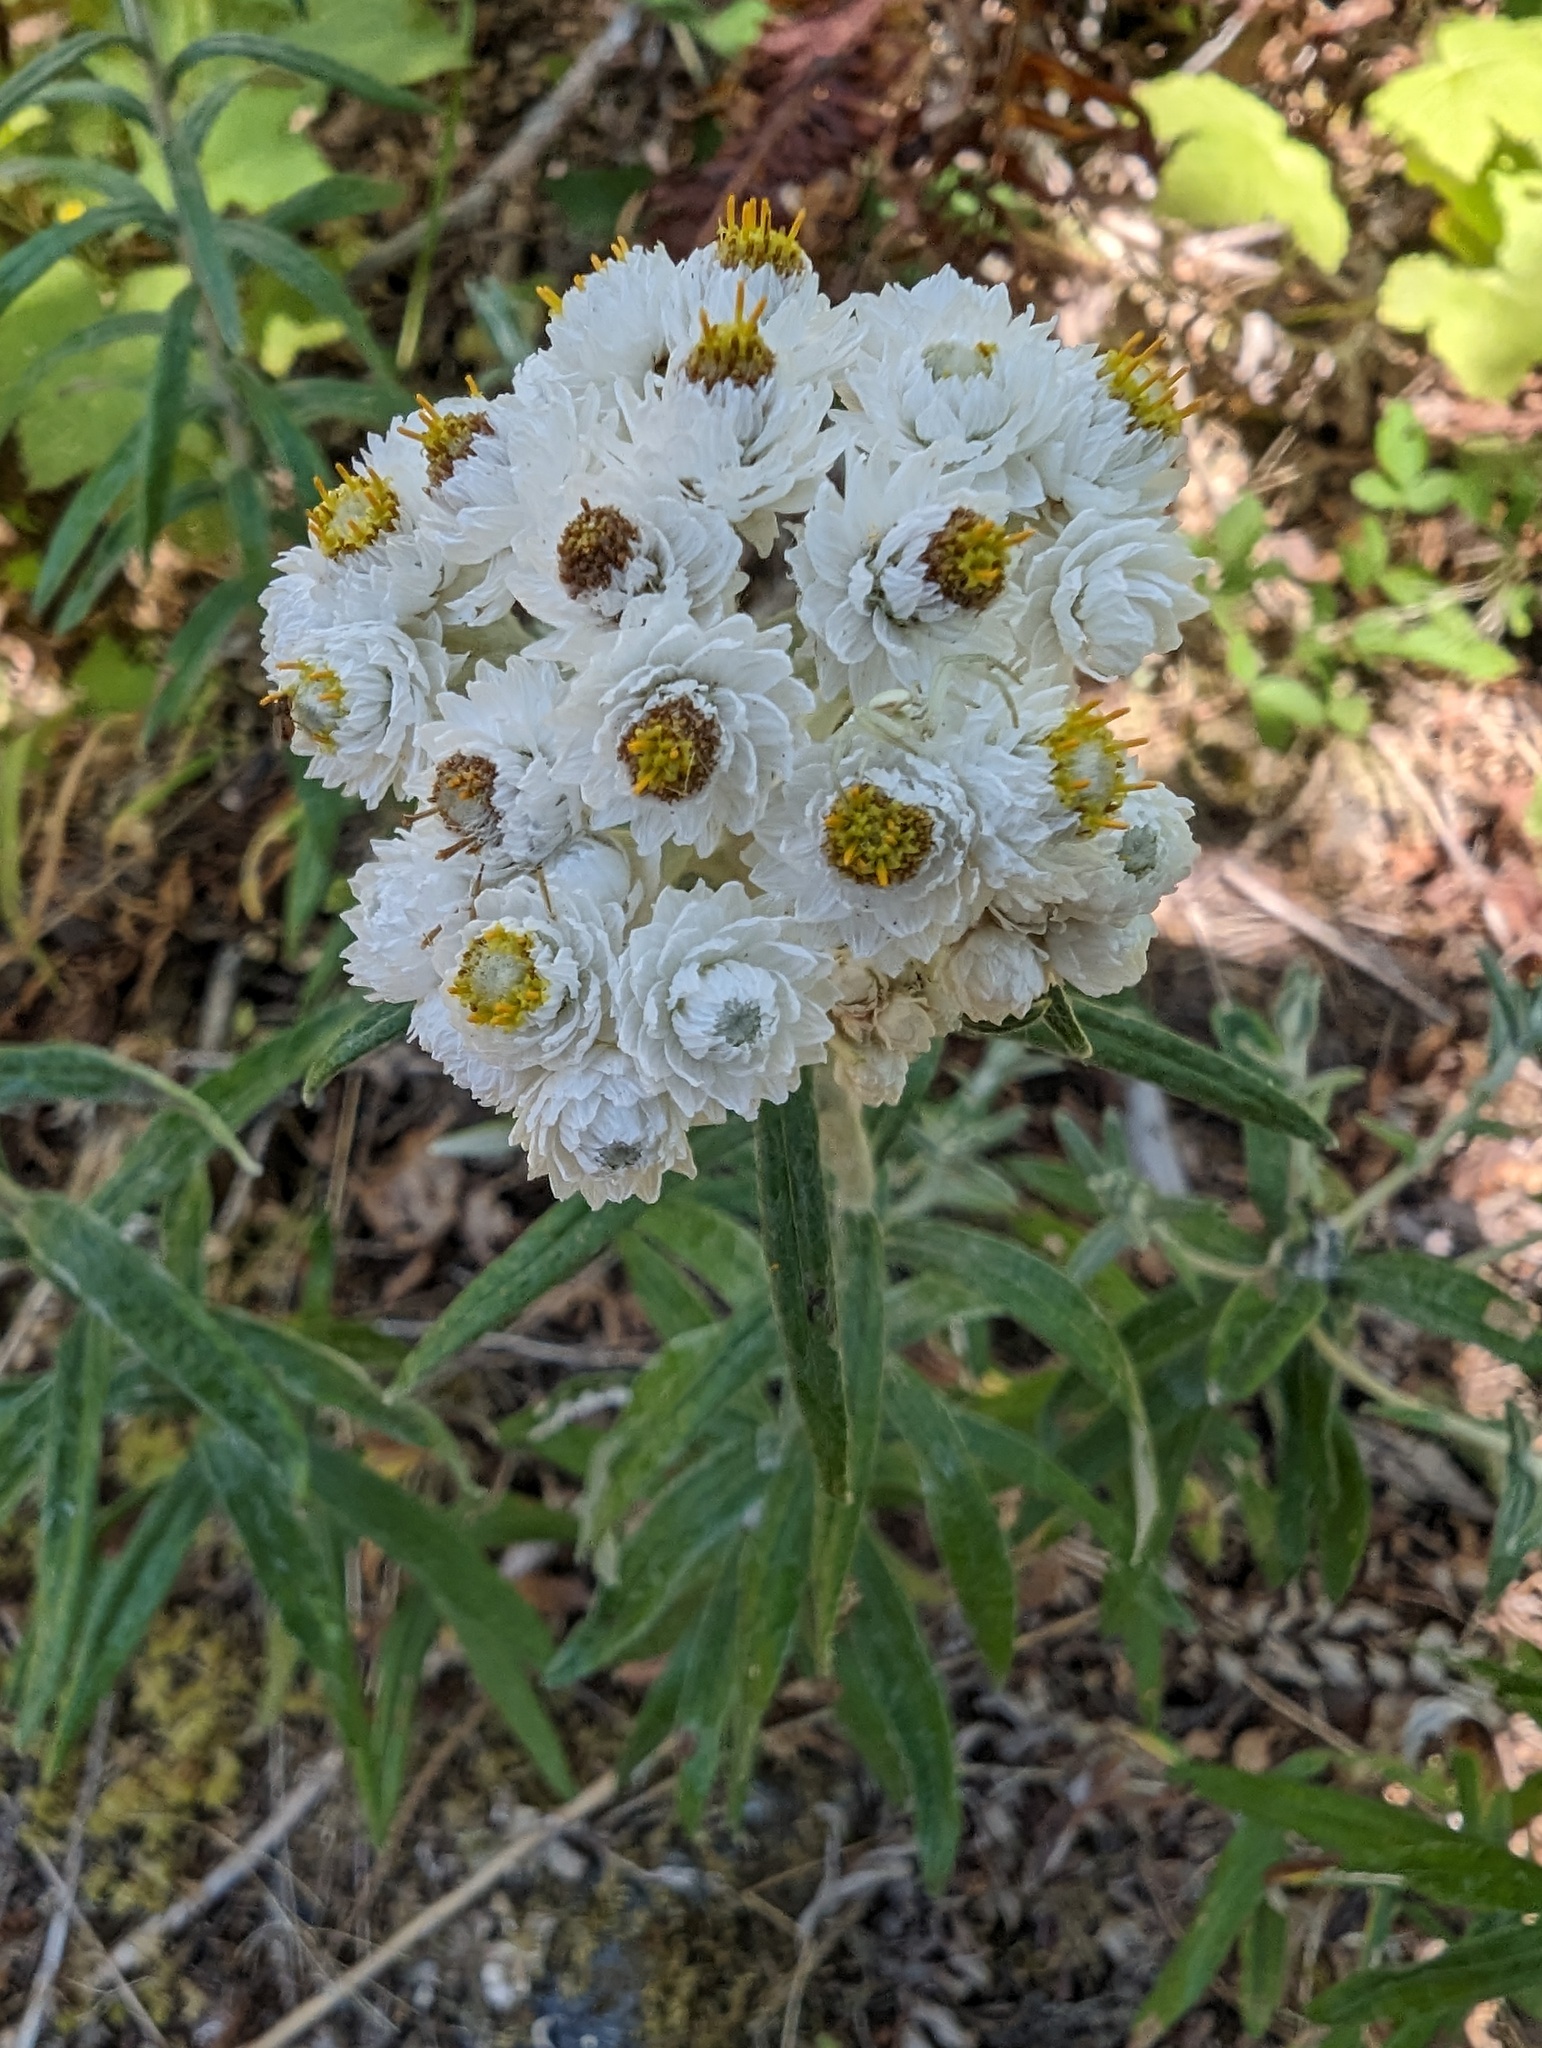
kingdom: Plantae
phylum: Tracheophyta
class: Magnoliopsida
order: Asterales
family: Asteraceae
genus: Anaphalis
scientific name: Anaphalis margaritacea
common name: Pearly everlasting
